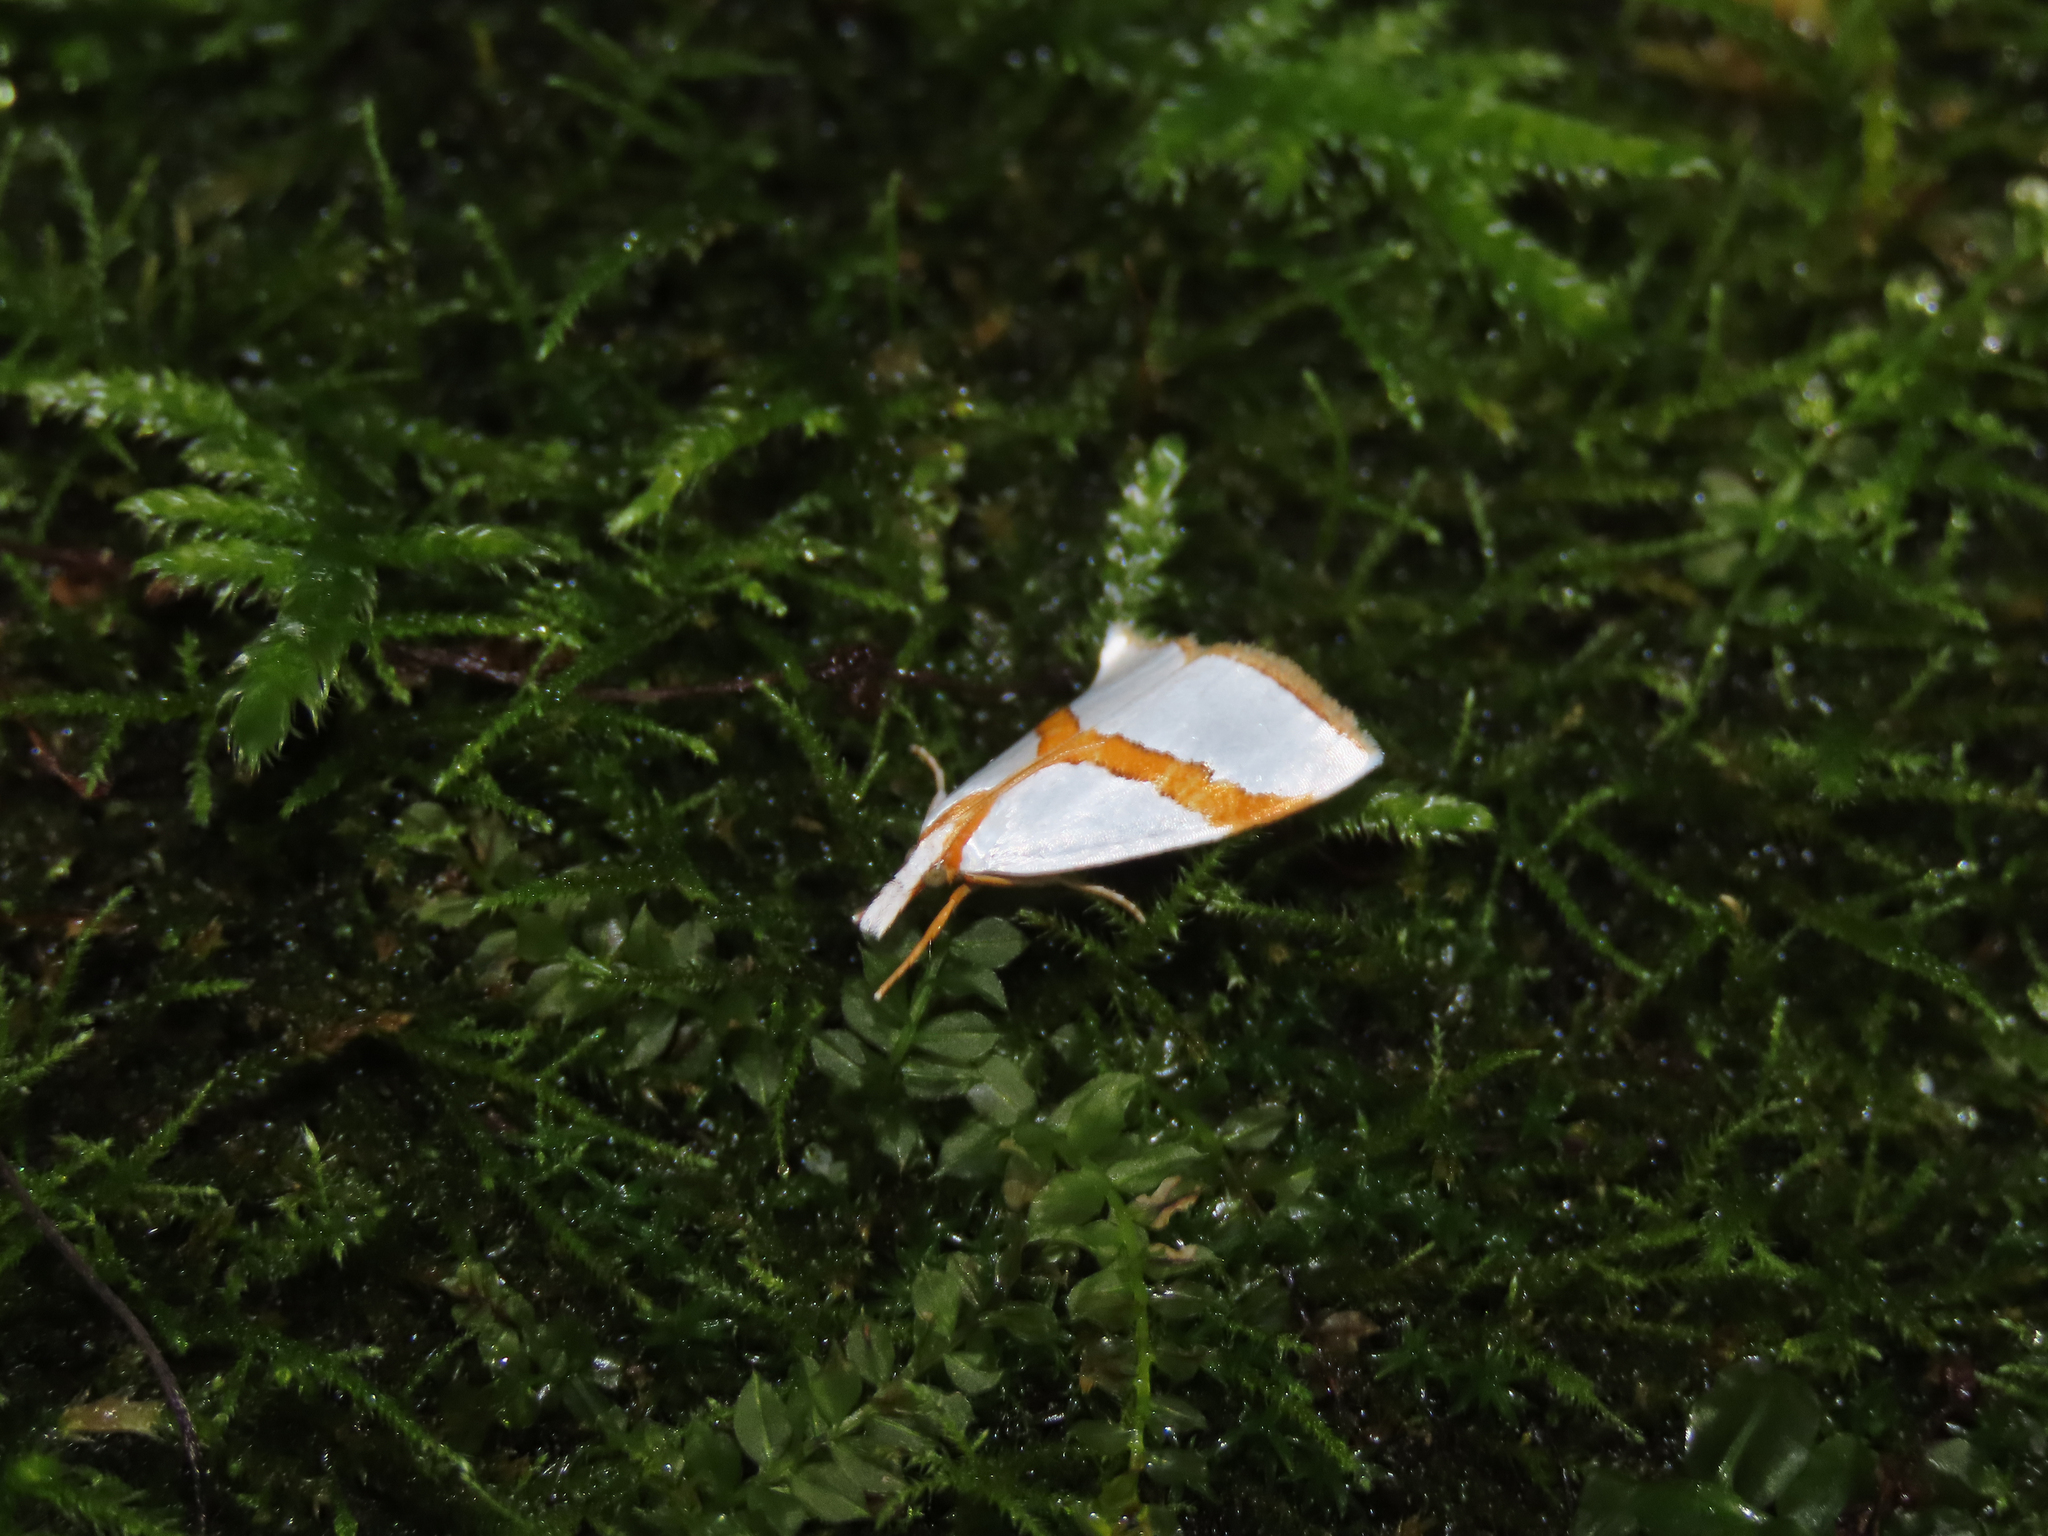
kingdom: Animalia
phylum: Arthropoda
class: Insecta
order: Lepidoptera
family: Crambidae
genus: Vaxi
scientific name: Vaxi critica
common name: Straight-lined vaxi moth
